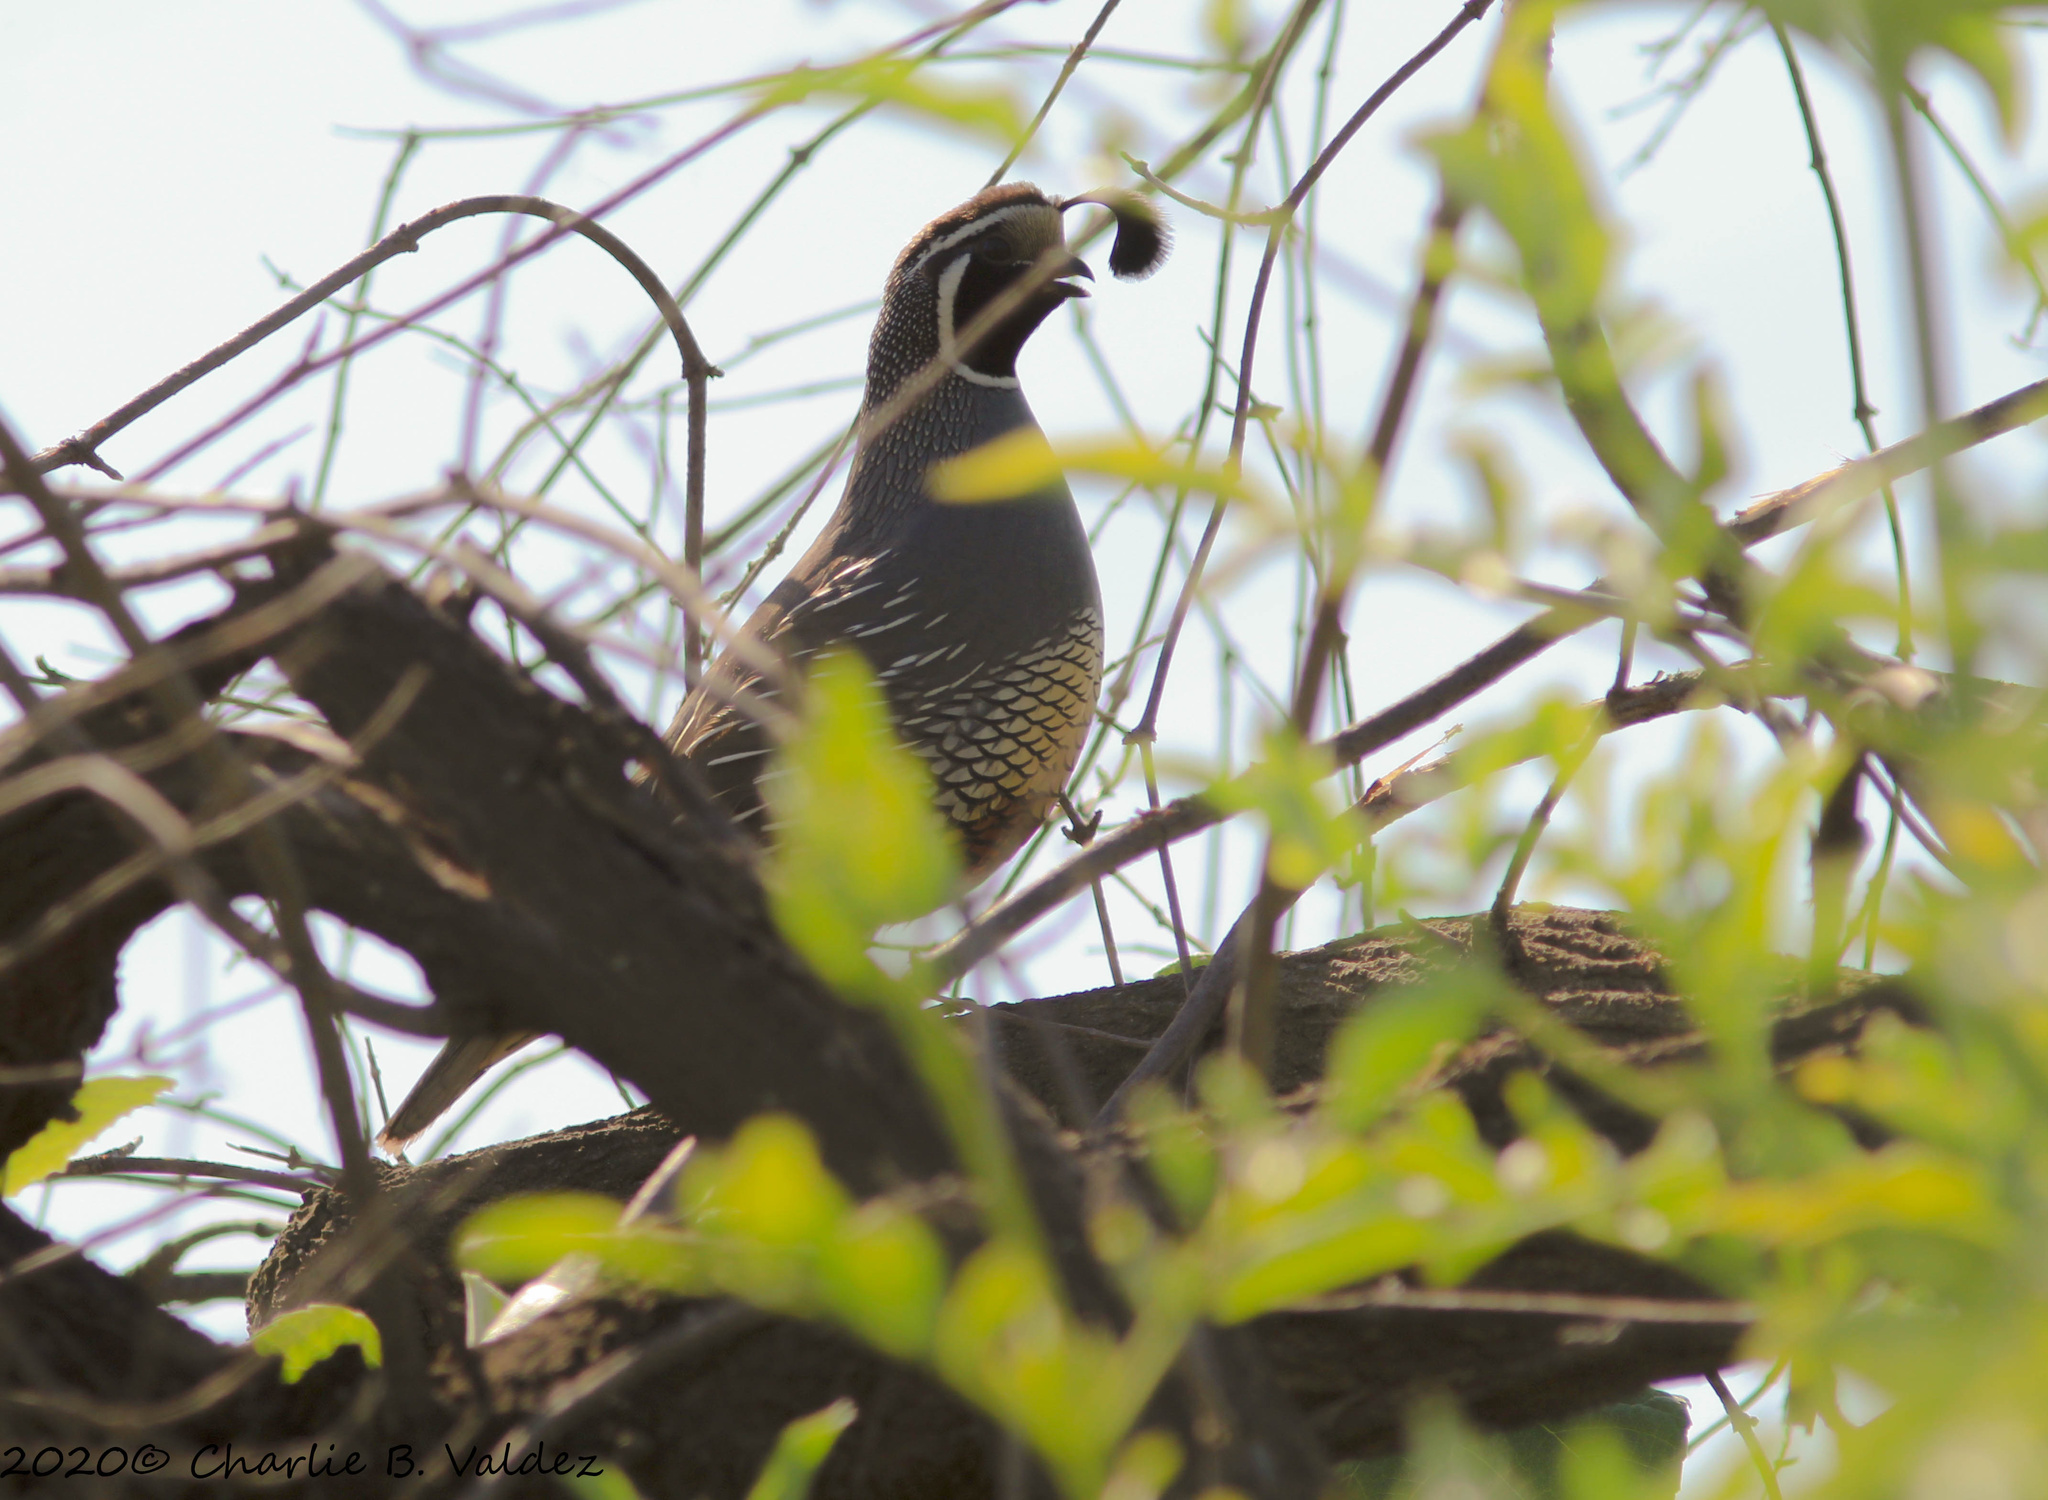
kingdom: Animalia
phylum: Chordata
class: Aves
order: Galliformes
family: Odontophoridae
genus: Callipepla
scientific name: Callipepla californica
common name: California quail
